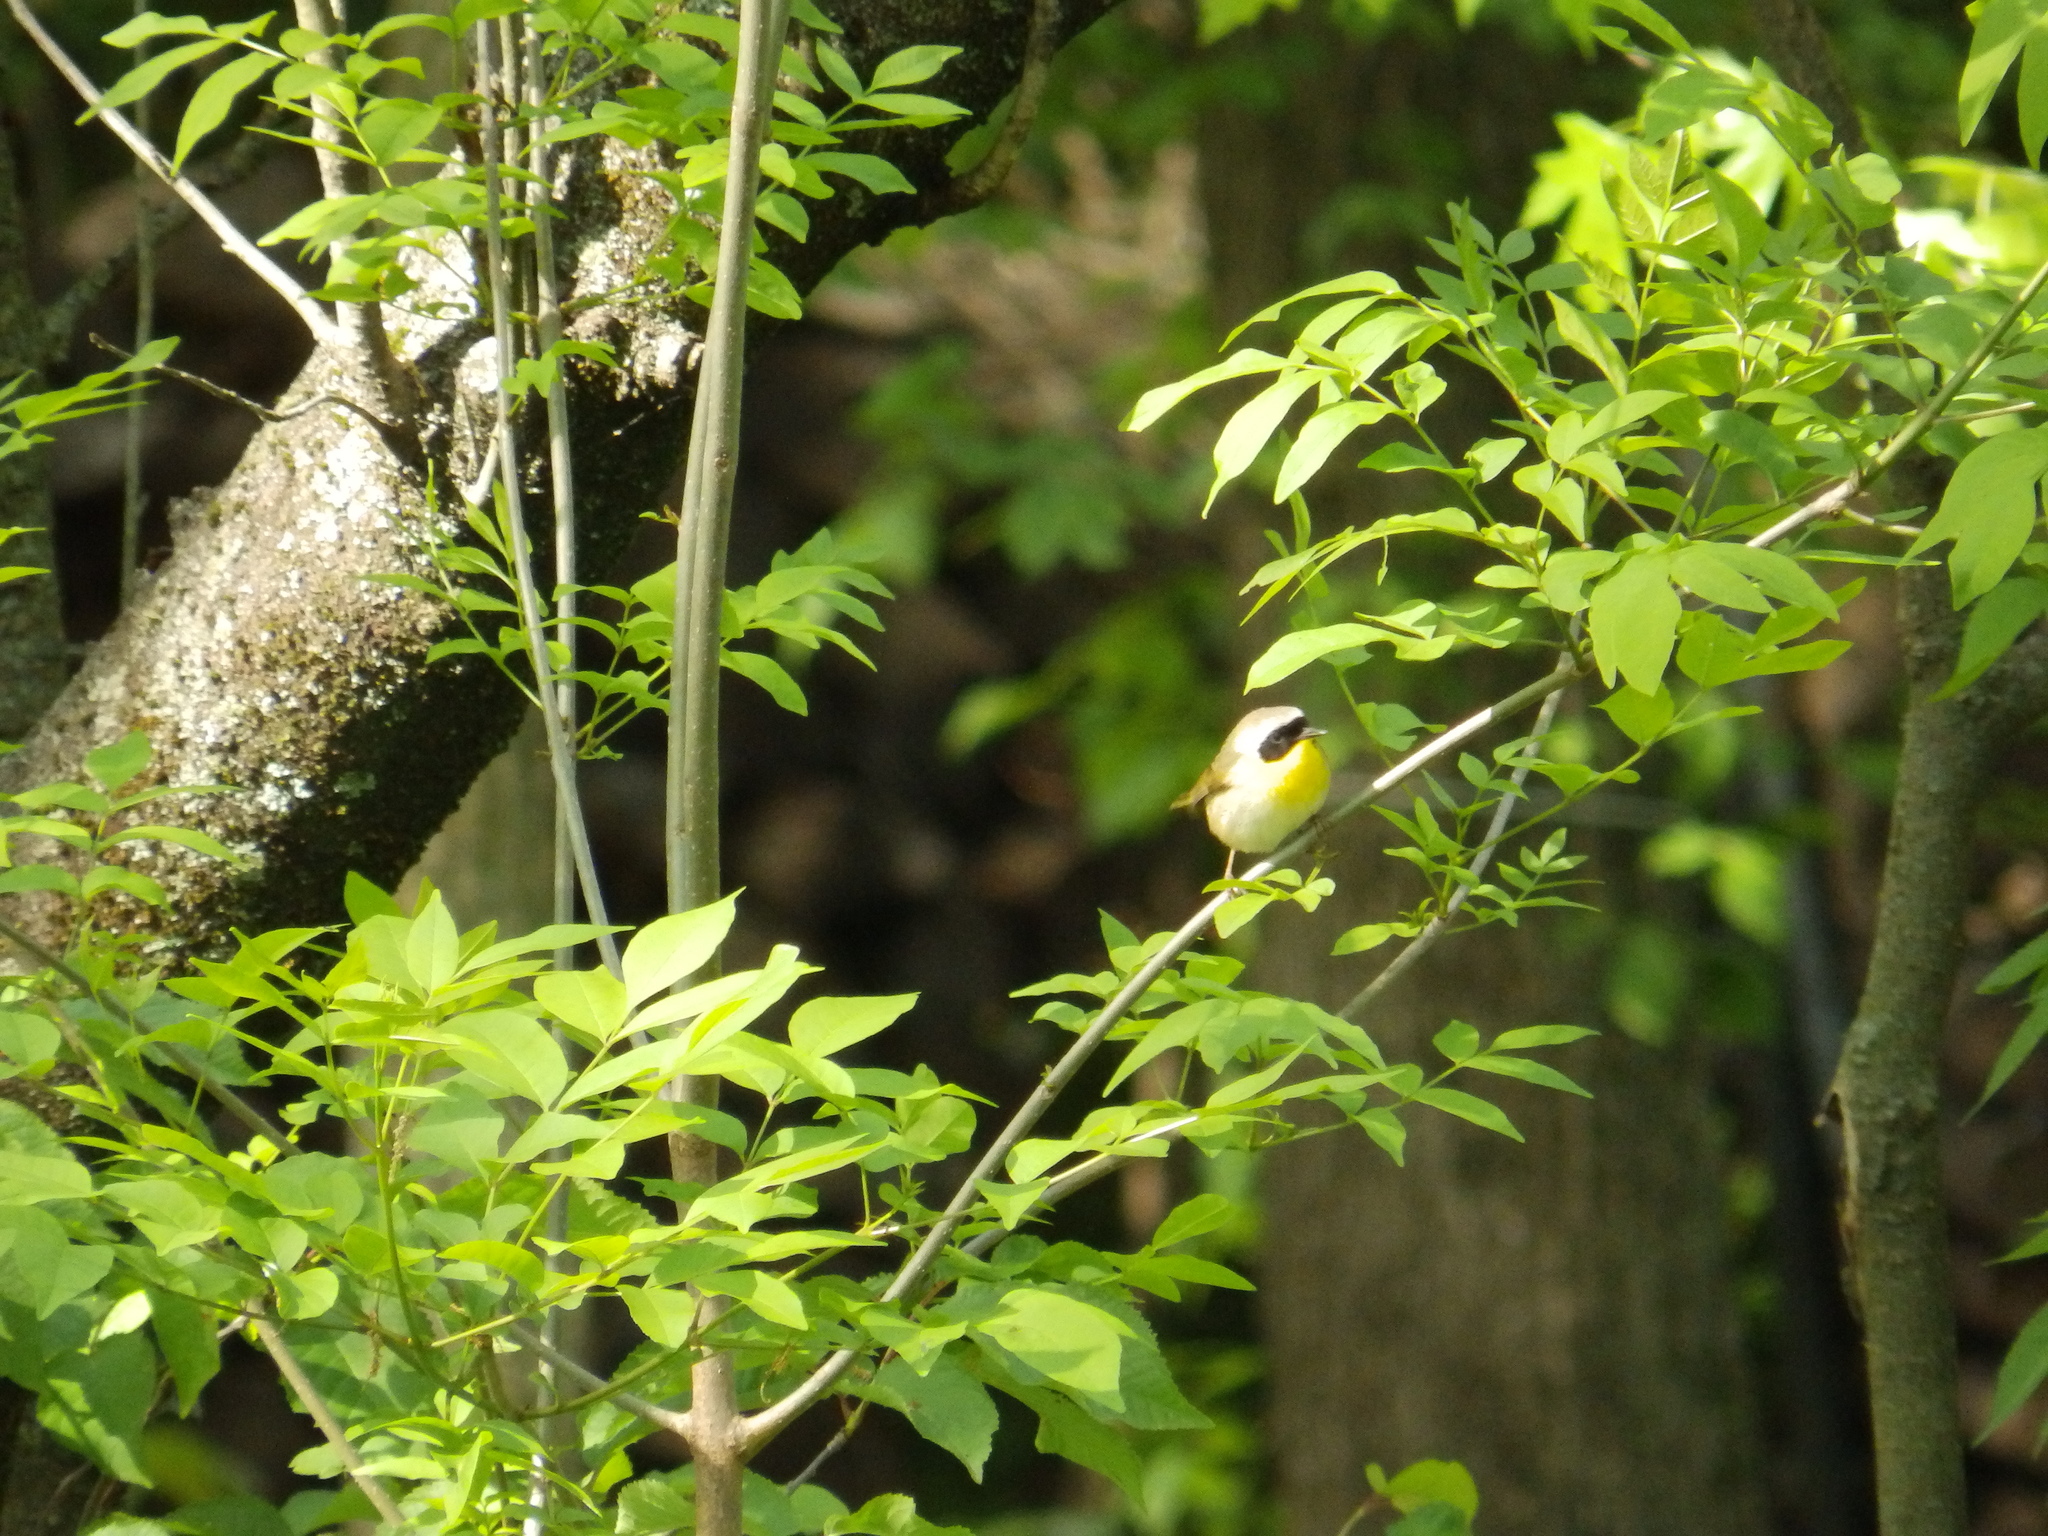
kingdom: Animalia
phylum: Chordata
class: Aves
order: Passeriformes
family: Parulidae
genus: Geothlypis
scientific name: Geothlypis trichas
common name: Common yellowthroat
